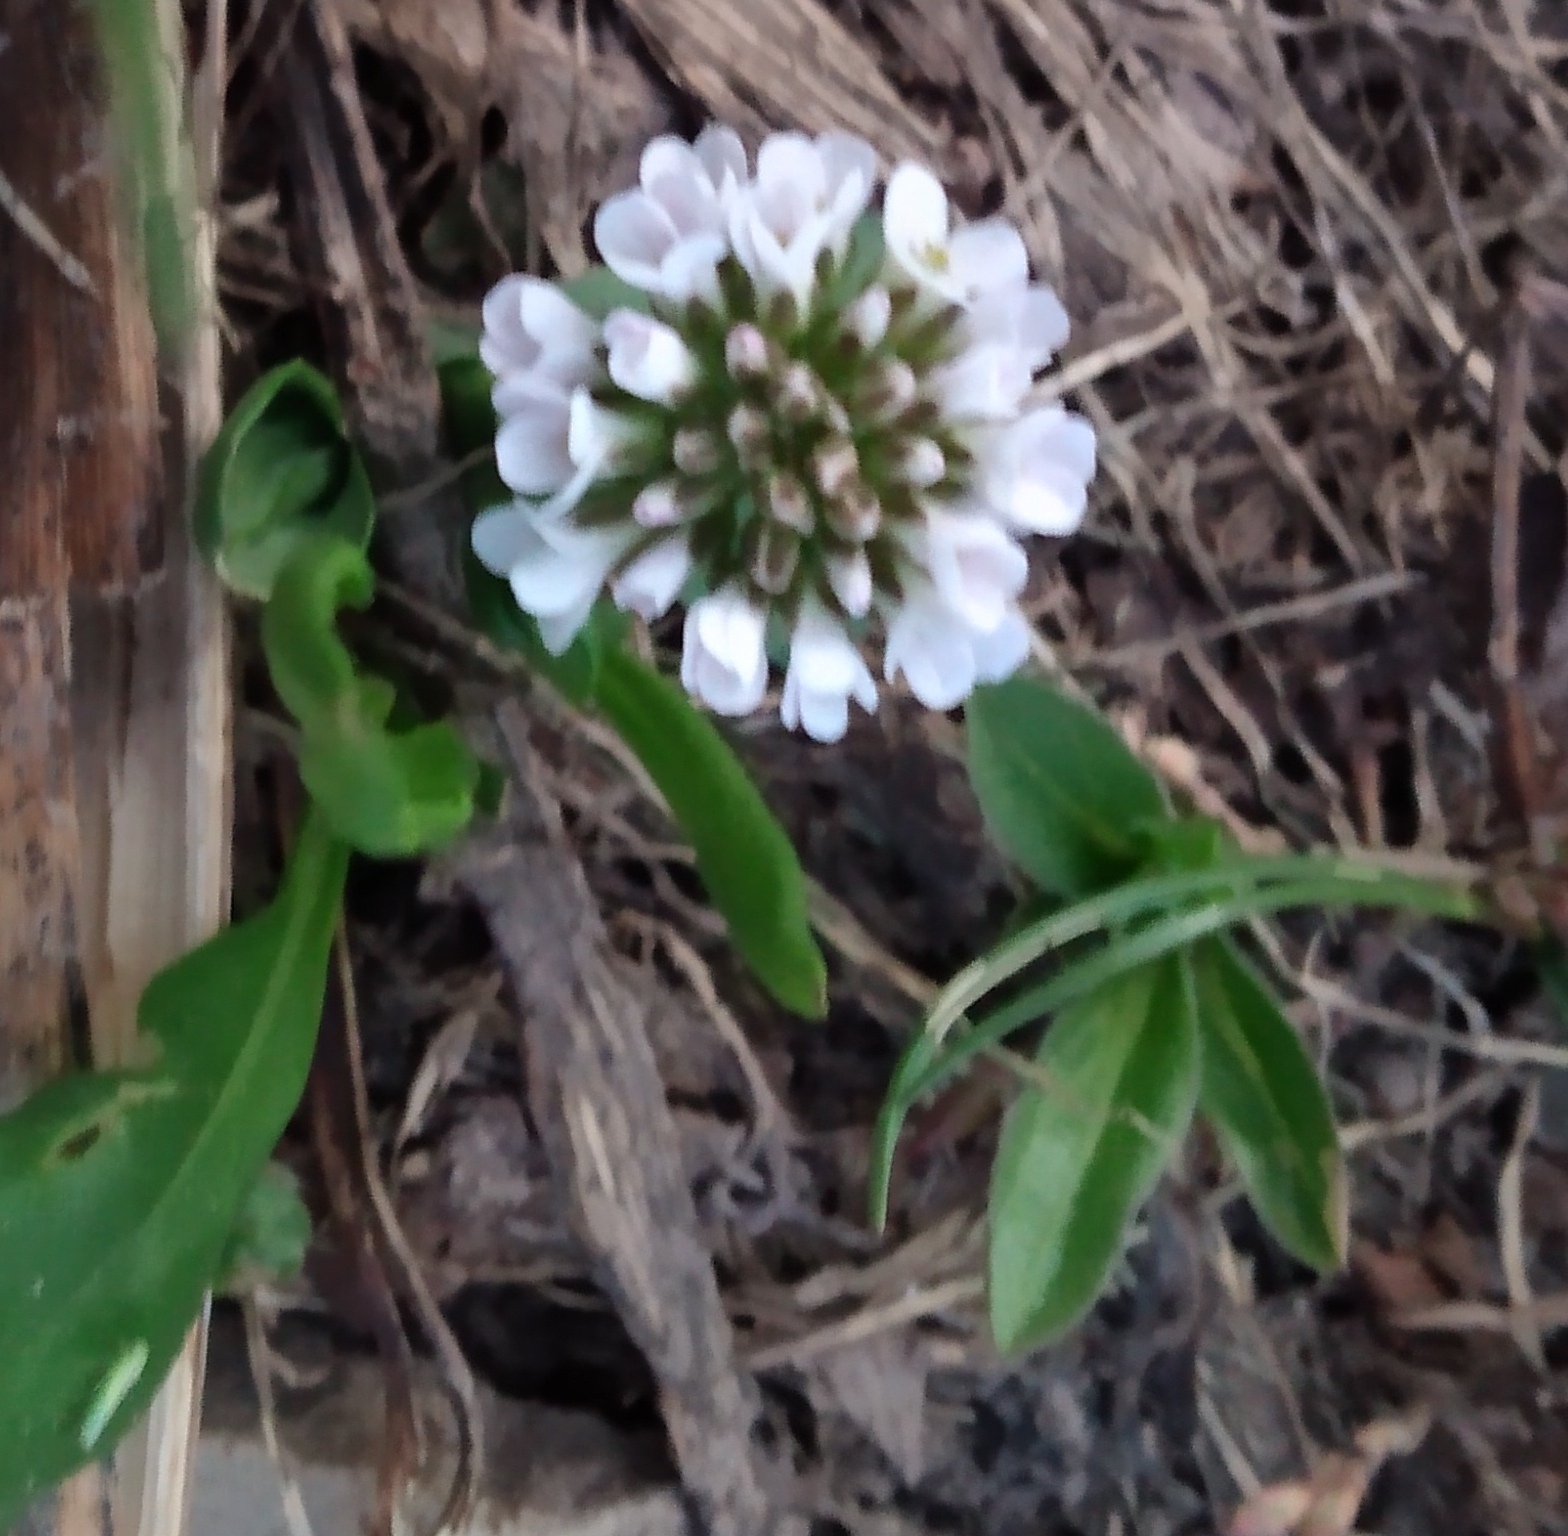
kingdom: Plantae
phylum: Tracheophyta
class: Magnoliopsida
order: Brassicales
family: Brassicaceae
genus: Noccaea
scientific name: Noccaea fendleri
